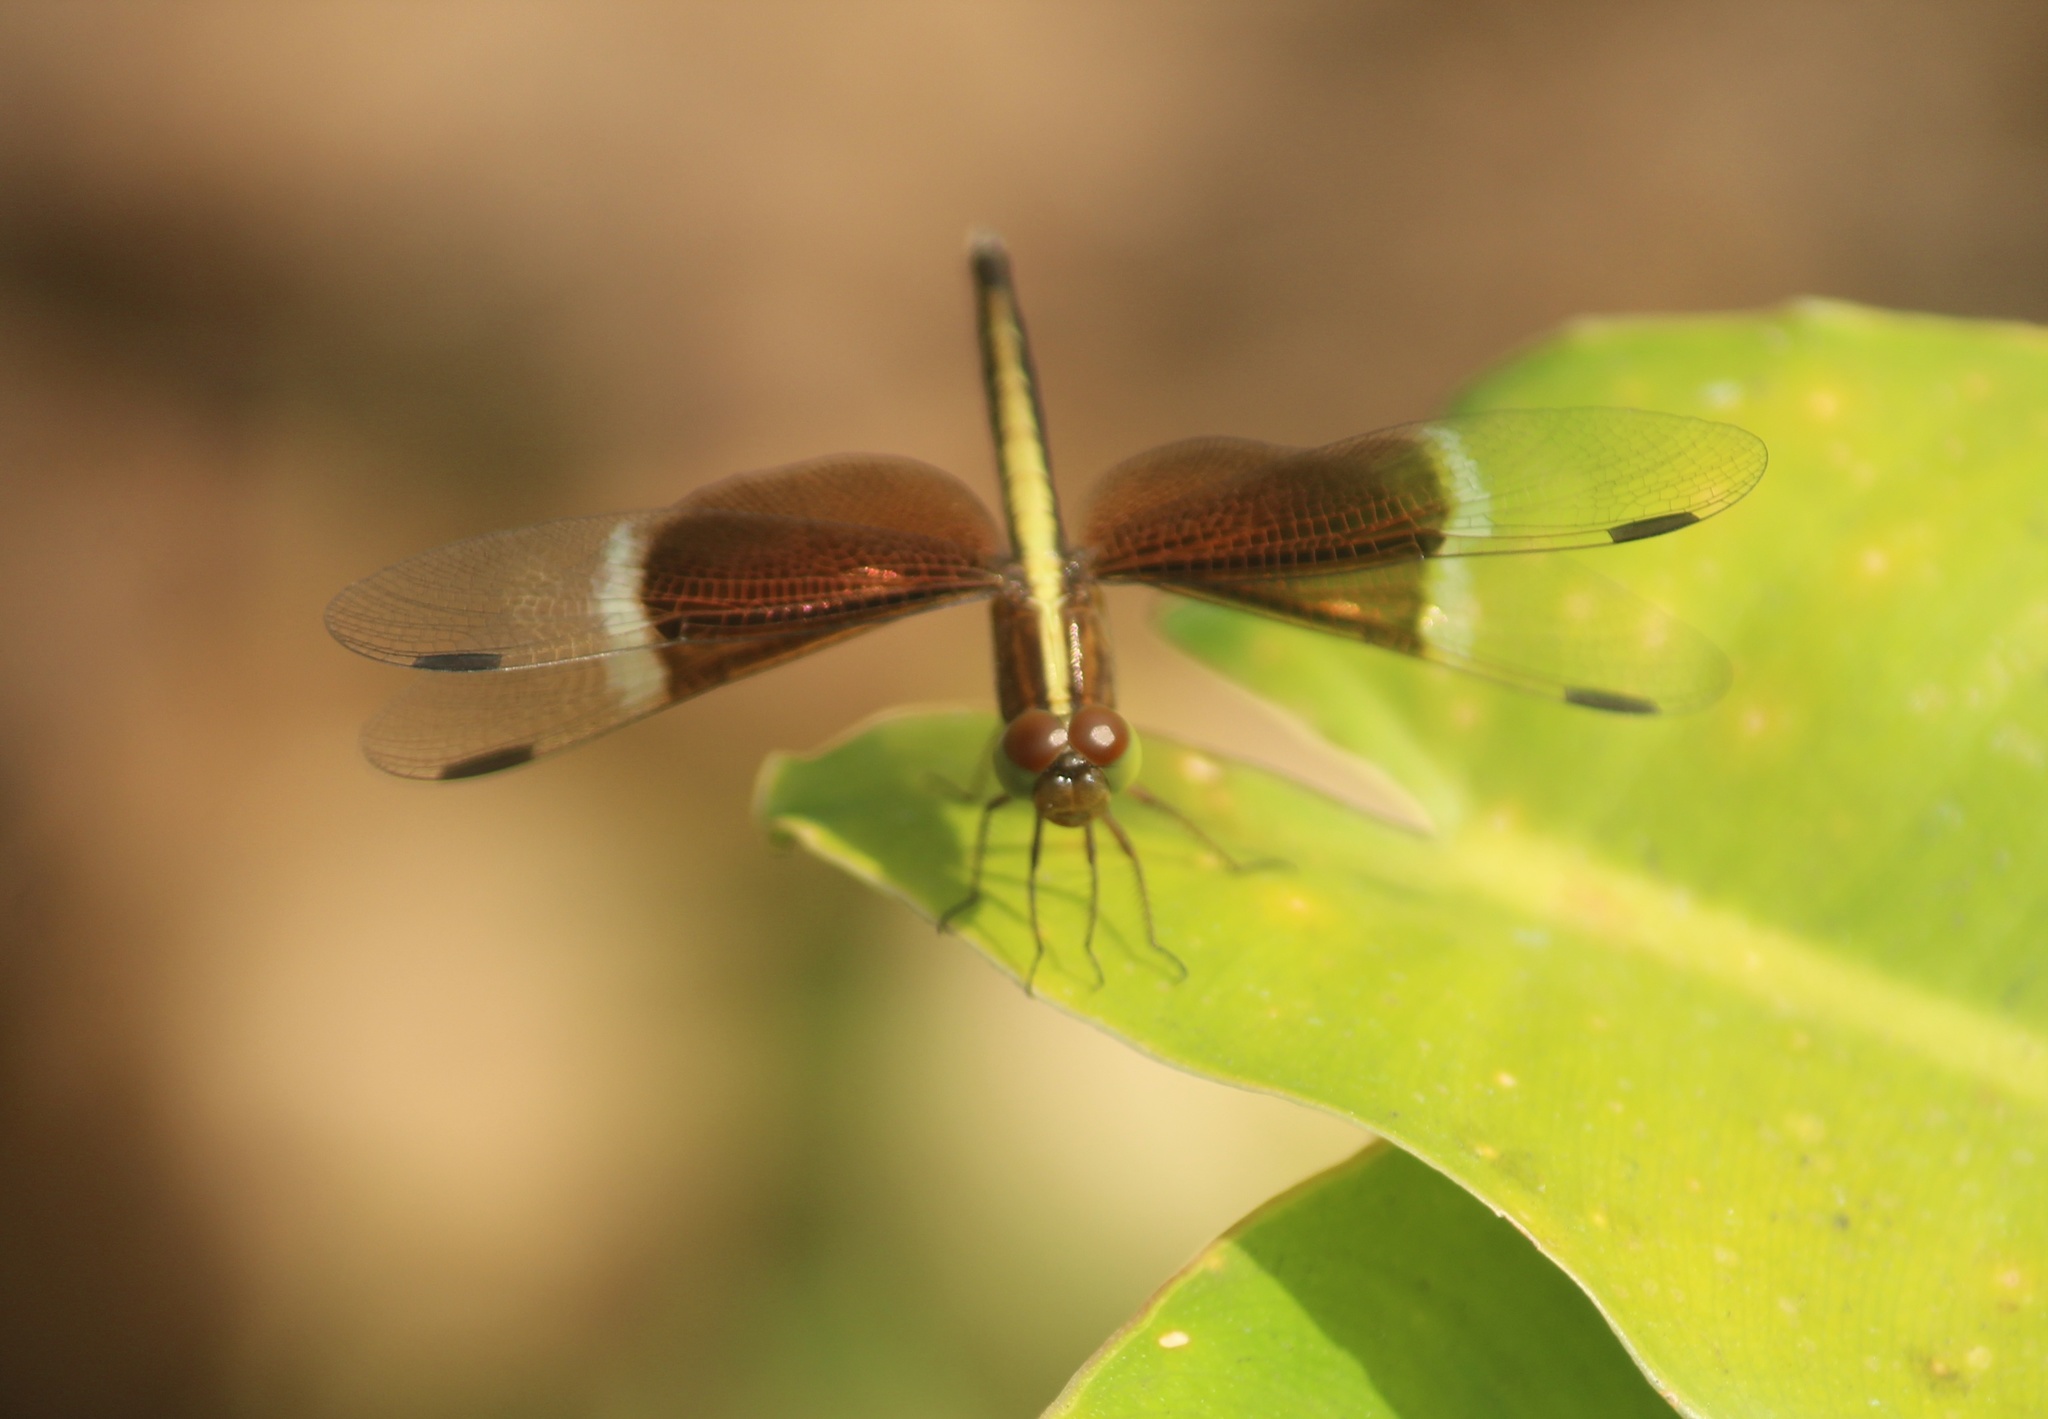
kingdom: Animalia
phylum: Arthropoda
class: Insecta
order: Odonata
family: Libellulidae
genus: Neurothemis
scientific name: Neurothemis tullia
